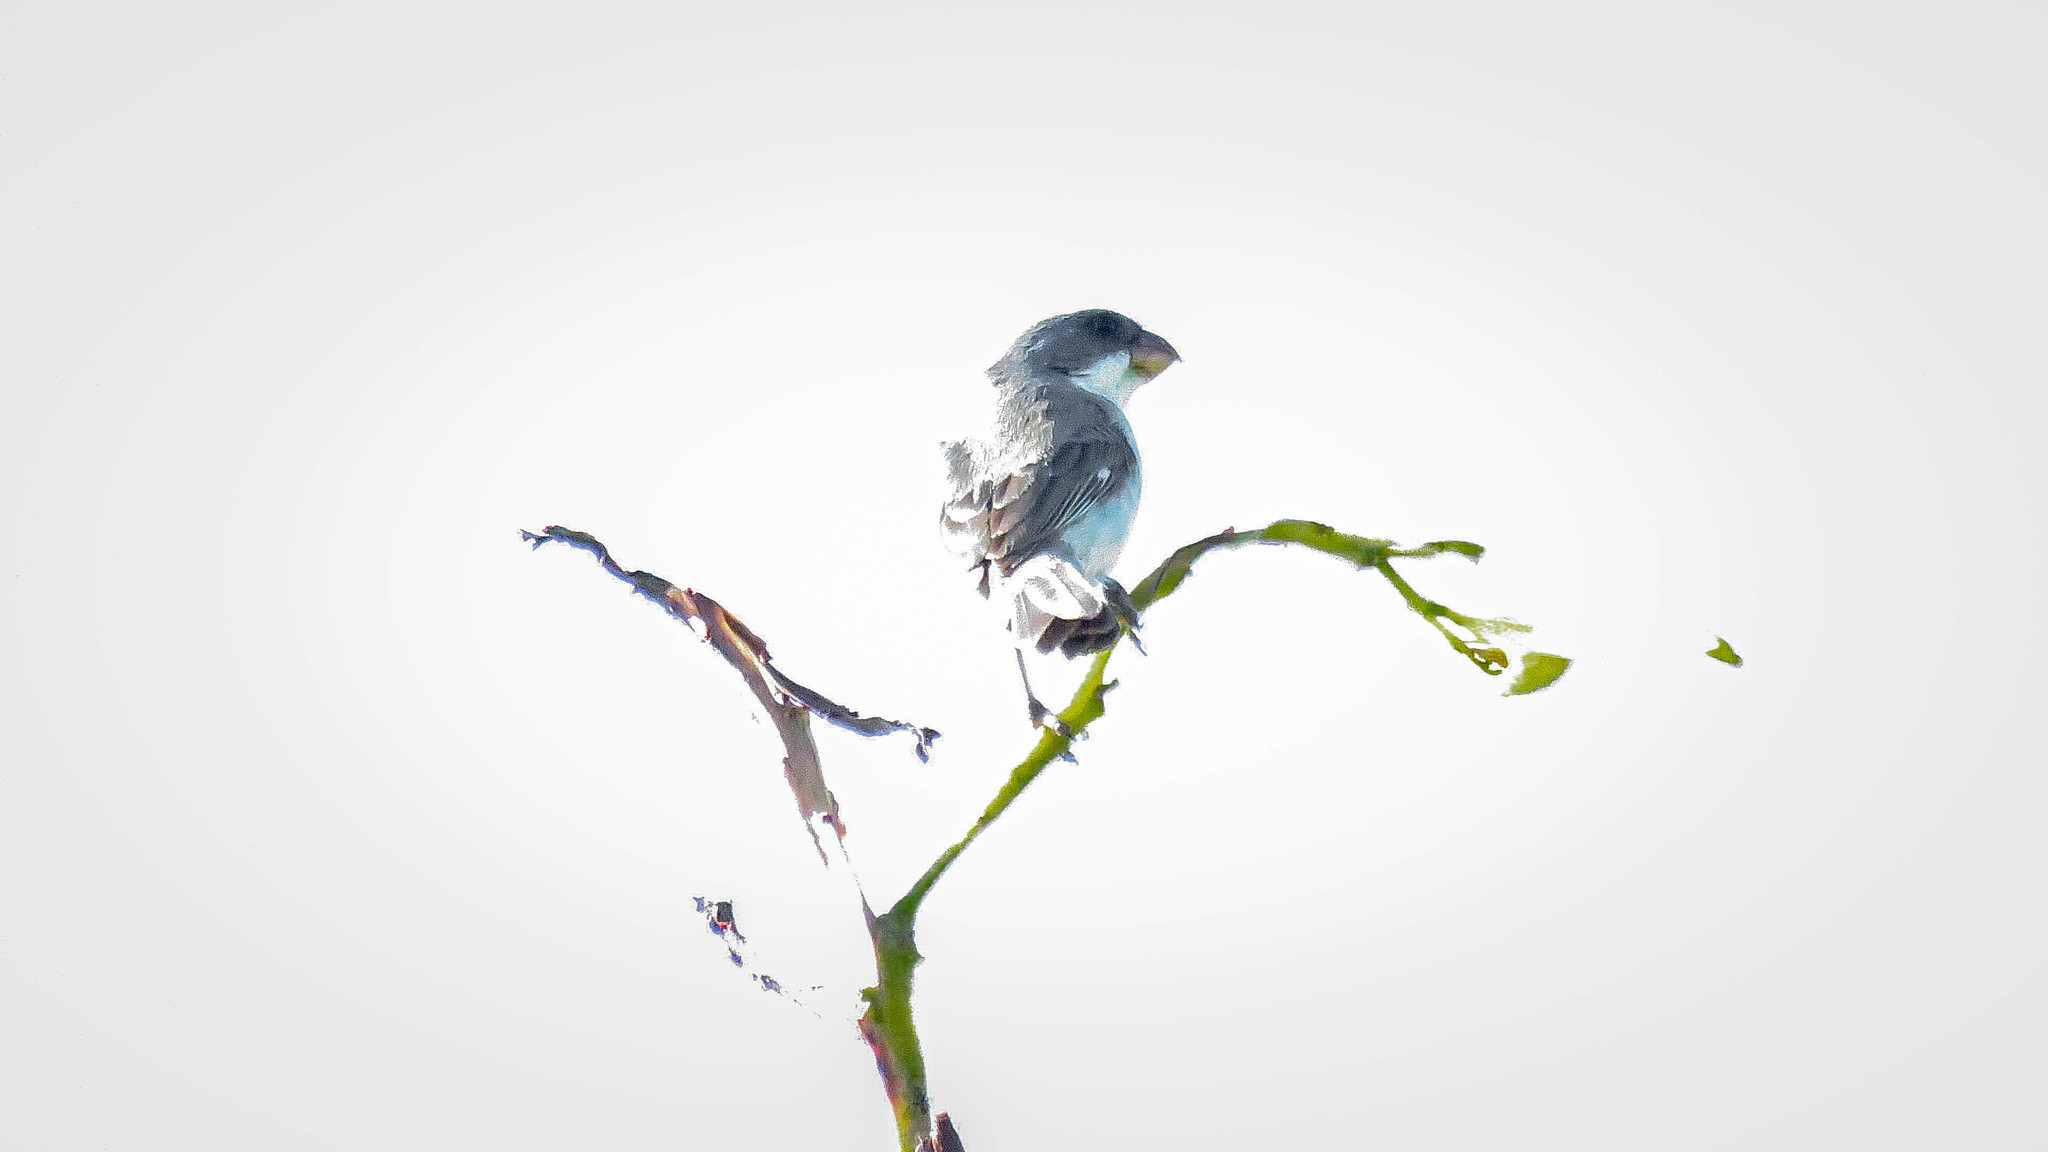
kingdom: Animalia
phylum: Chordata
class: Aves
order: Passeriformes
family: Thraupidae
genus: Sporophila
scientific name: Sporophila leucoptera
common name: White-bellied seedeater
